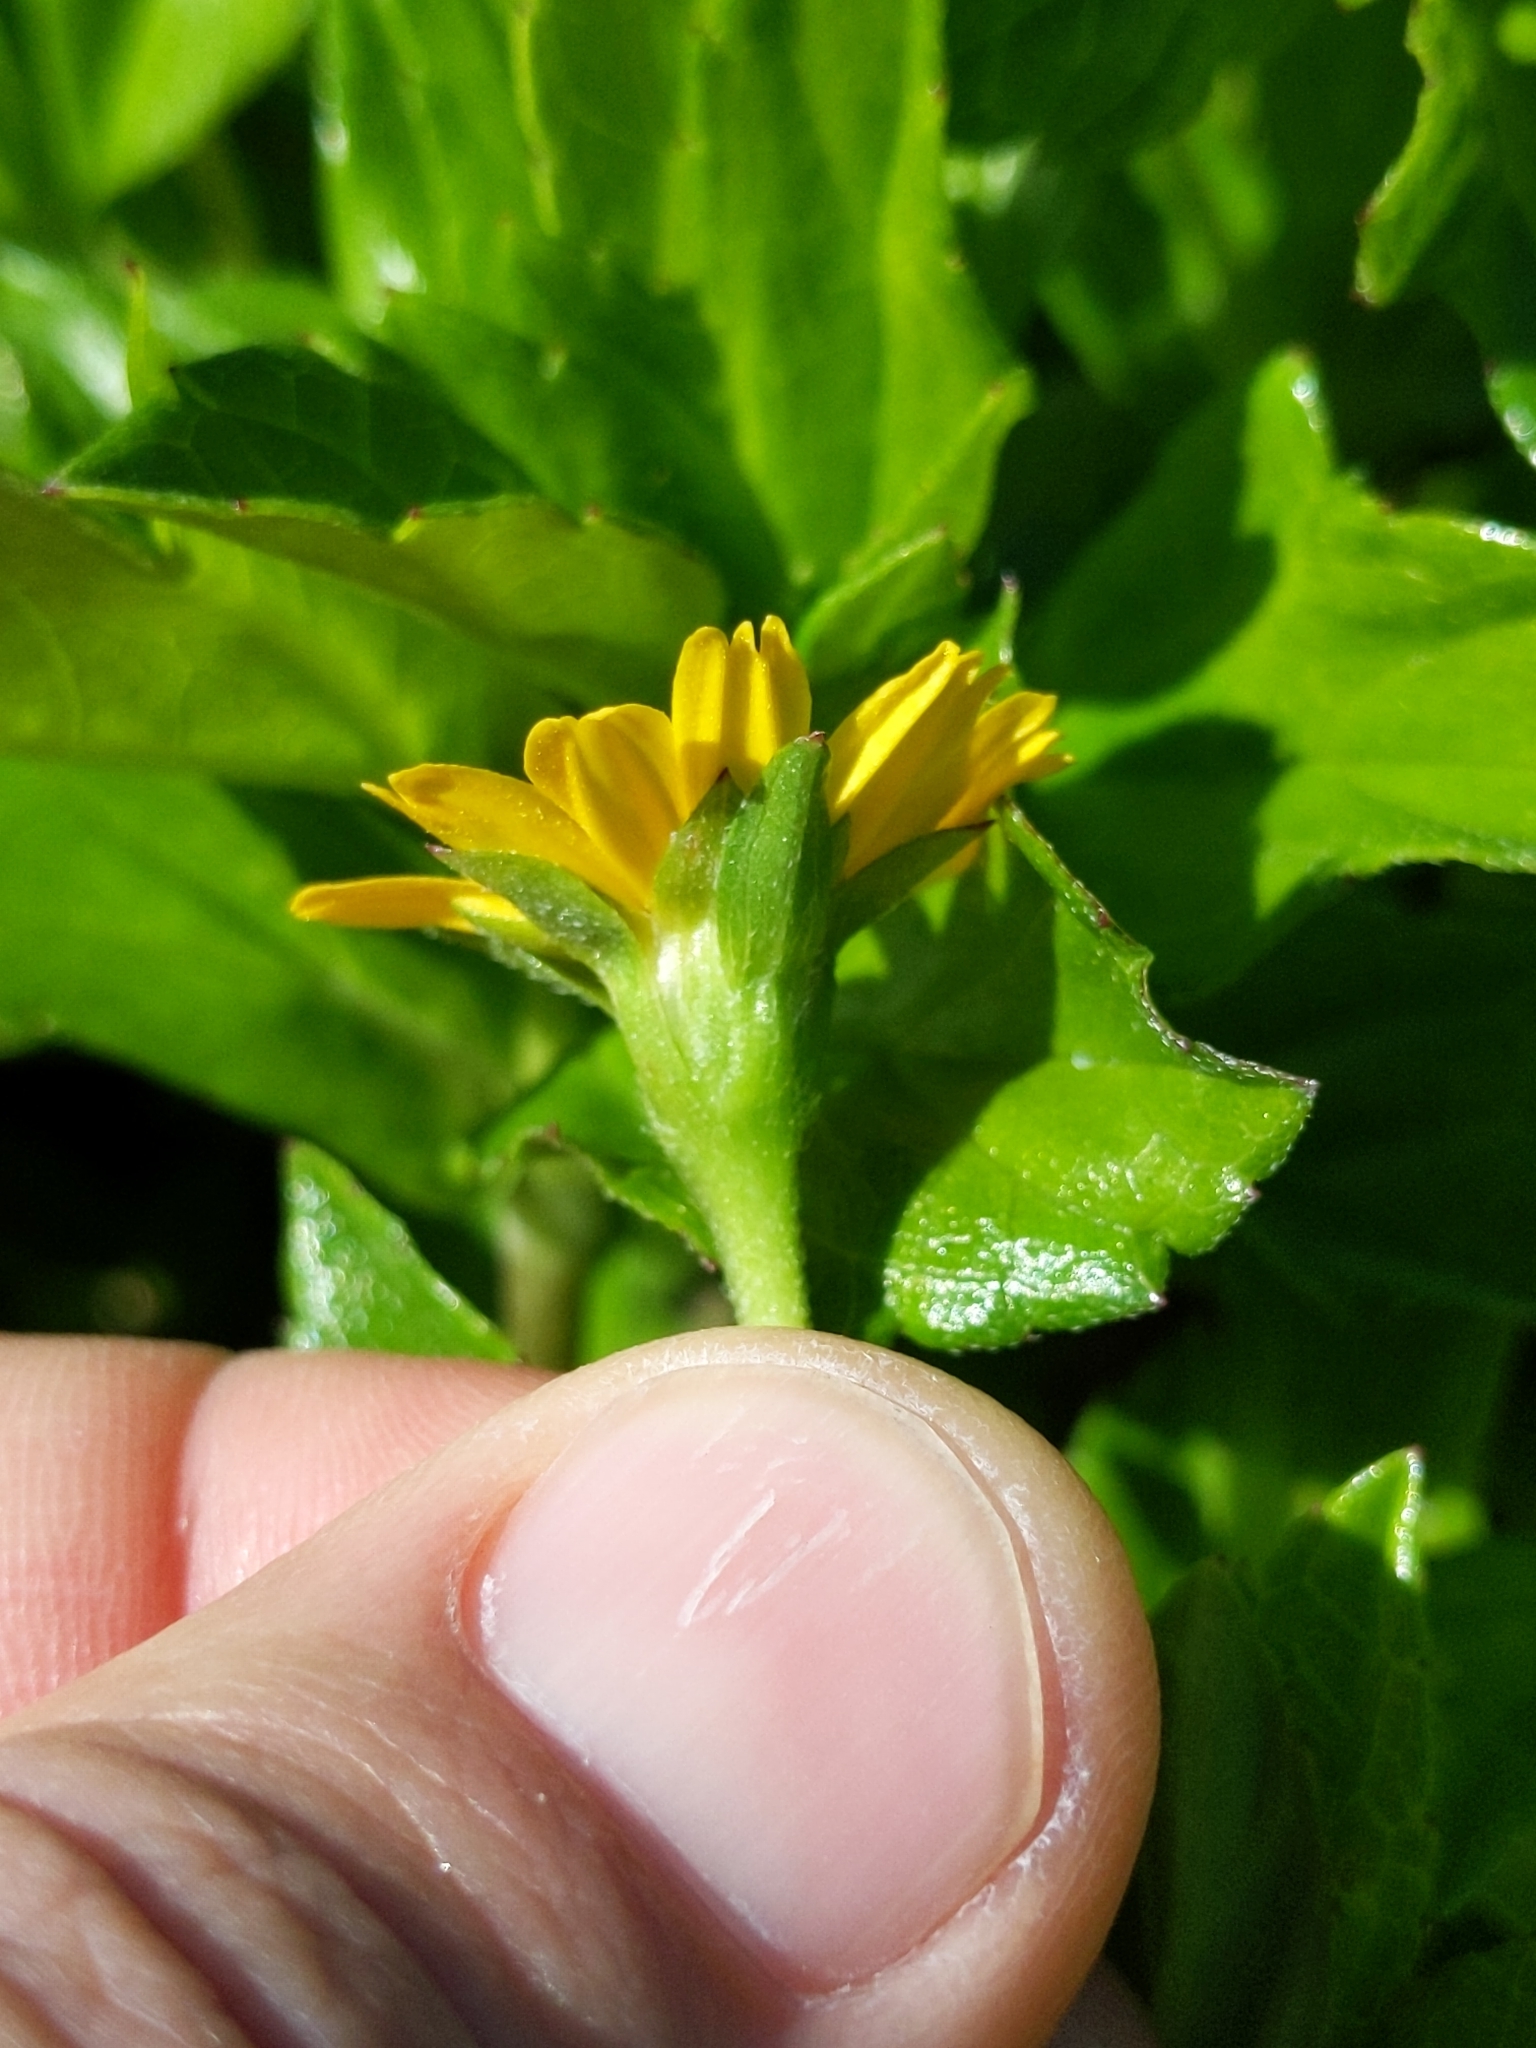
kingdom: Plantae
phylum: Tracheophyta
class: Magnoliopsida
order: Asterales
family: Asteraceae
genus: Sphagneticola
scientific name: Sphagneticola trilobata
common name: Bay biscayne creeping-oxeye
